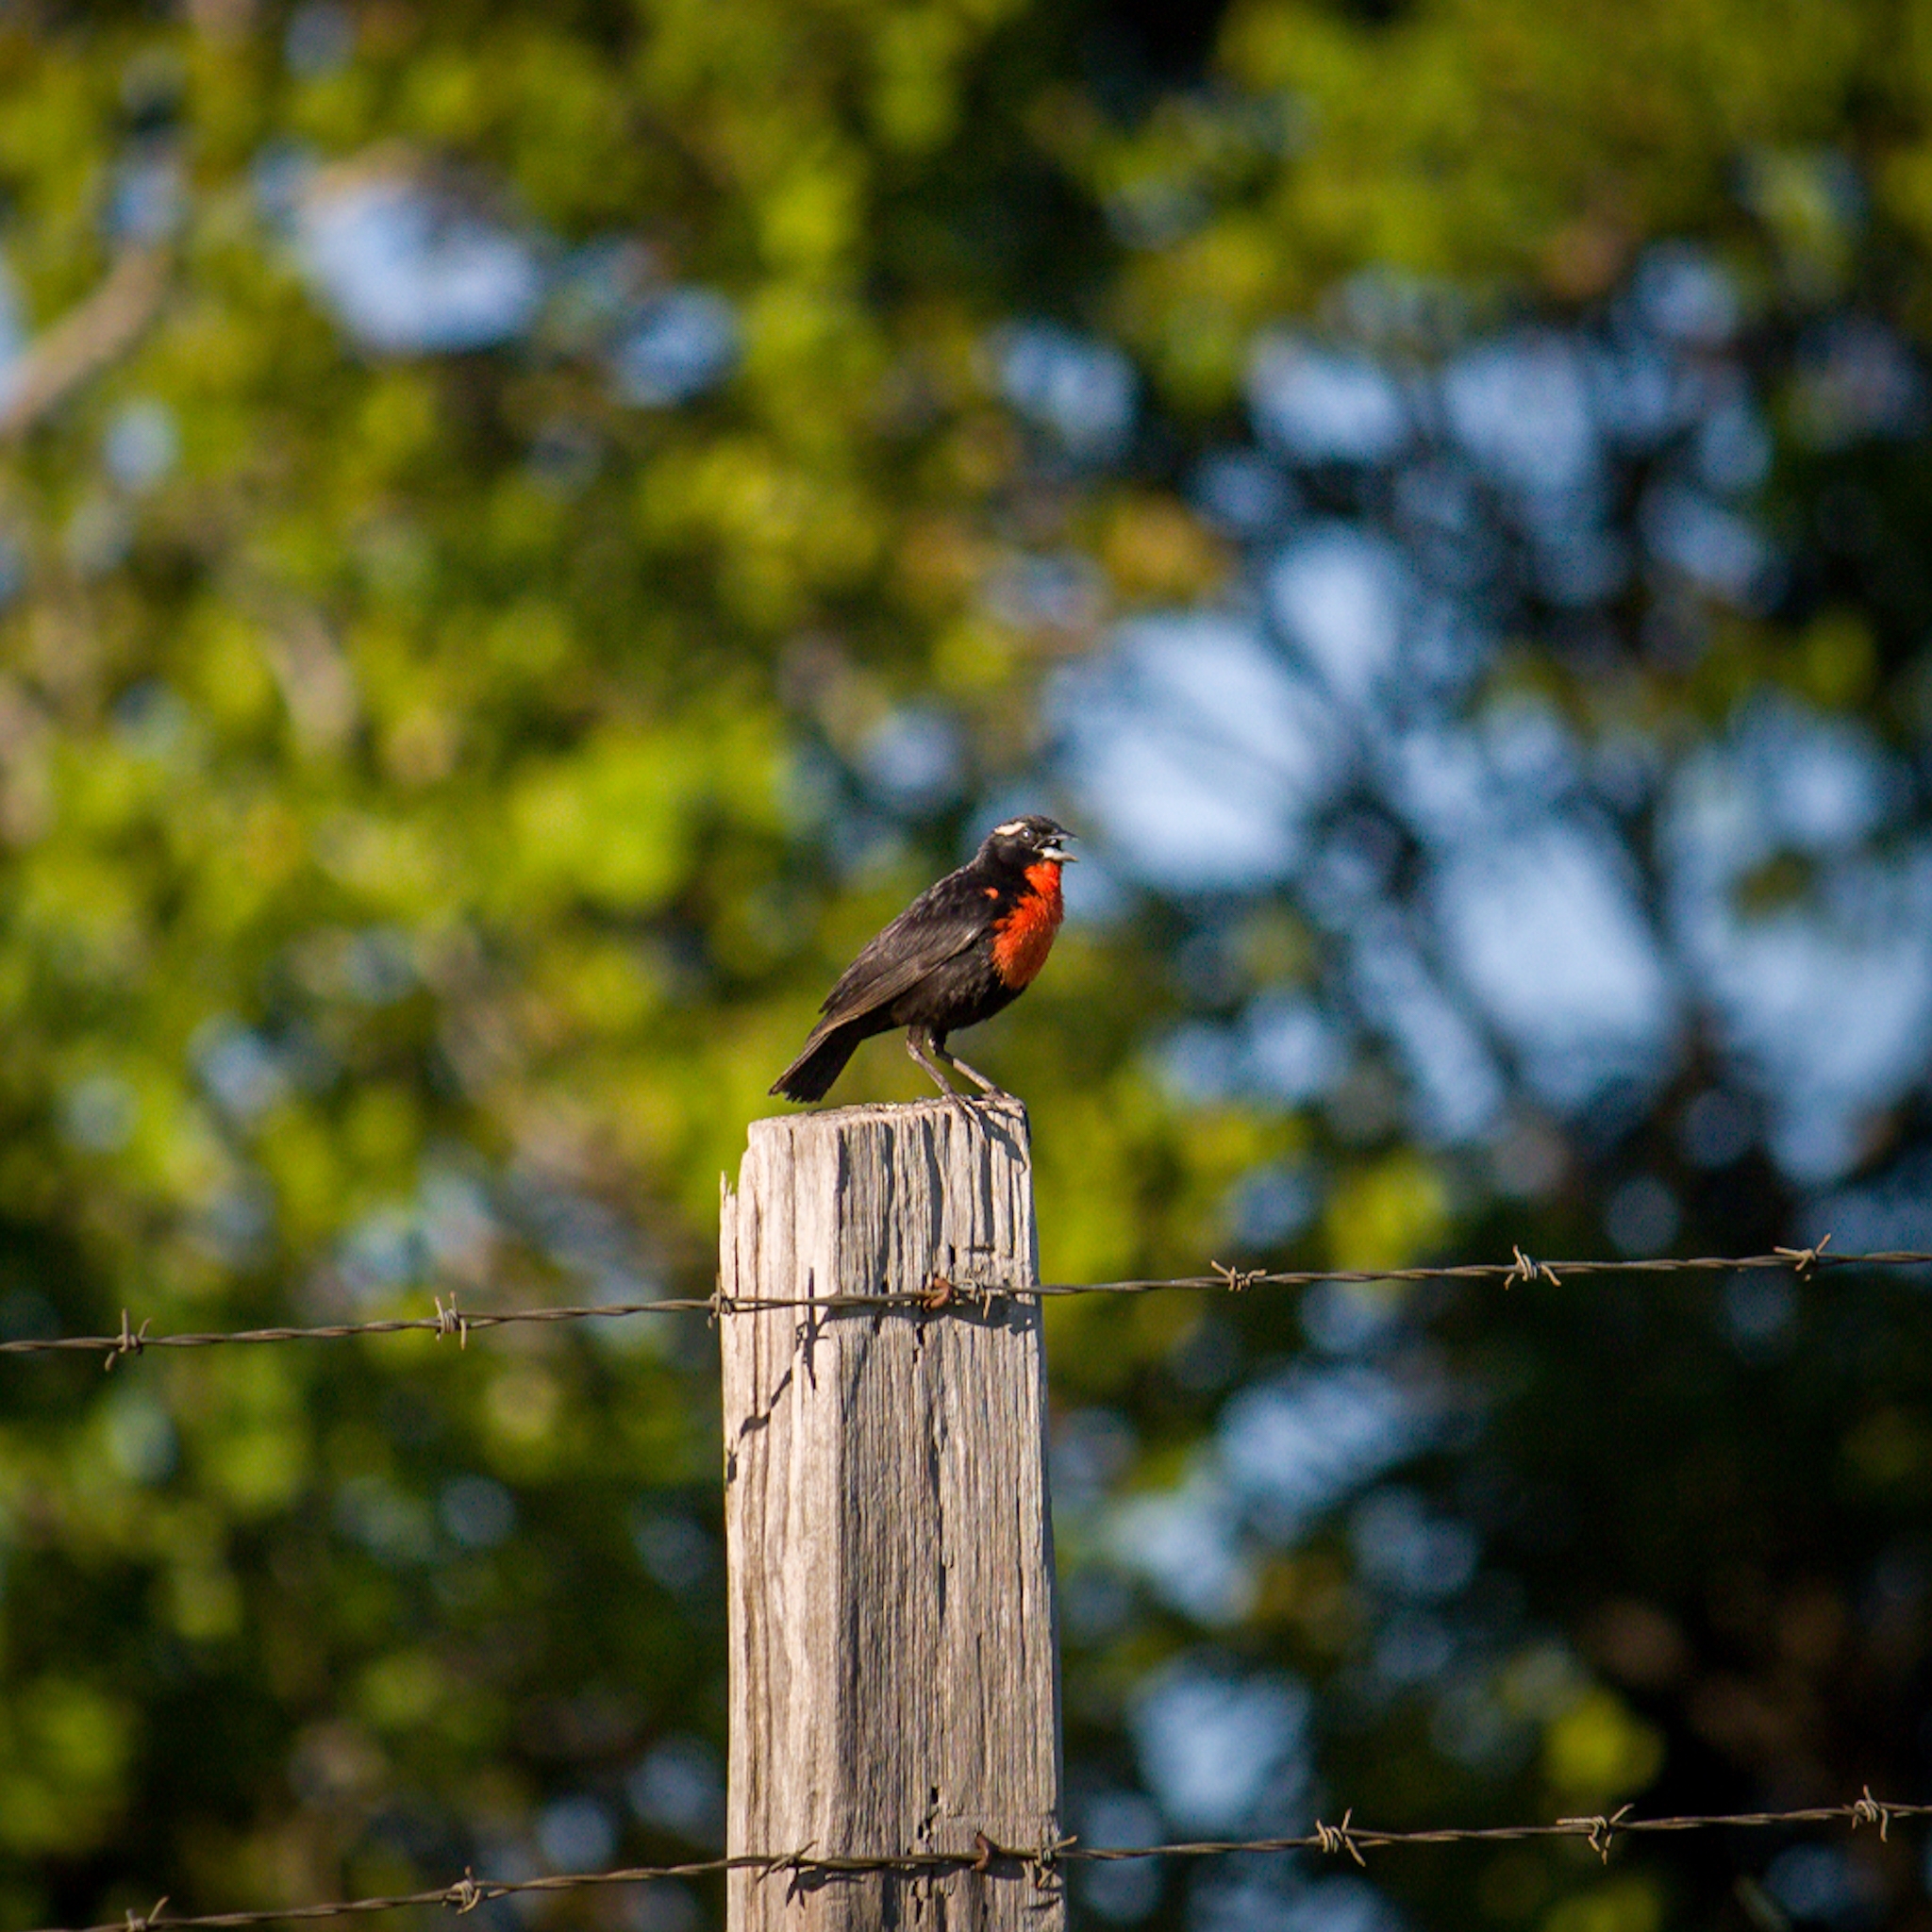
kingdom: Animalia
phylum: Chordata
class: Aves
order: Passeriformes
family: Icteridae
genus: Sturnella
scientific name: Sturnella superciliaris
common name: White-browed blackbird
